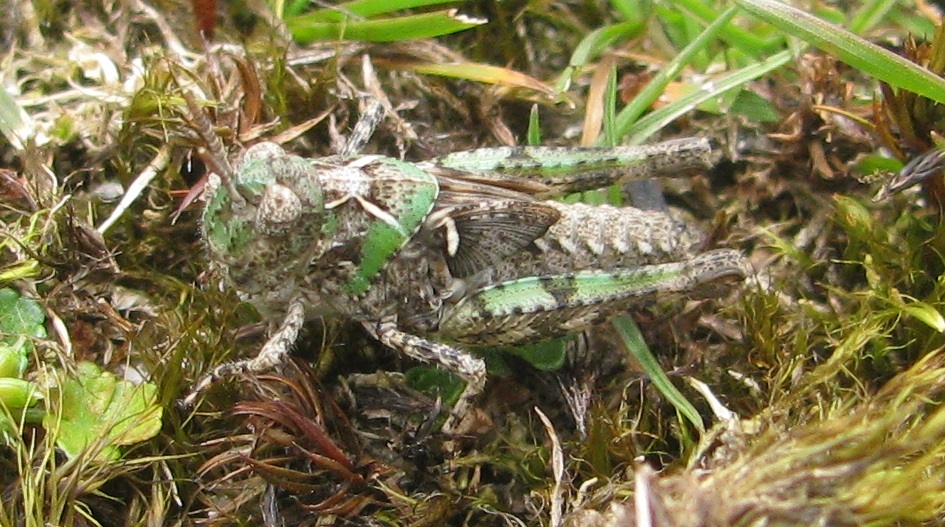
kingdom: Animalia
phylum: Arthropoda
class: Insecta
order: Orthoptera
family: Acrididae
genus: Austroicetes
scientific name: Austroicetes vulgaris
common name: Southeastern austroicetes
